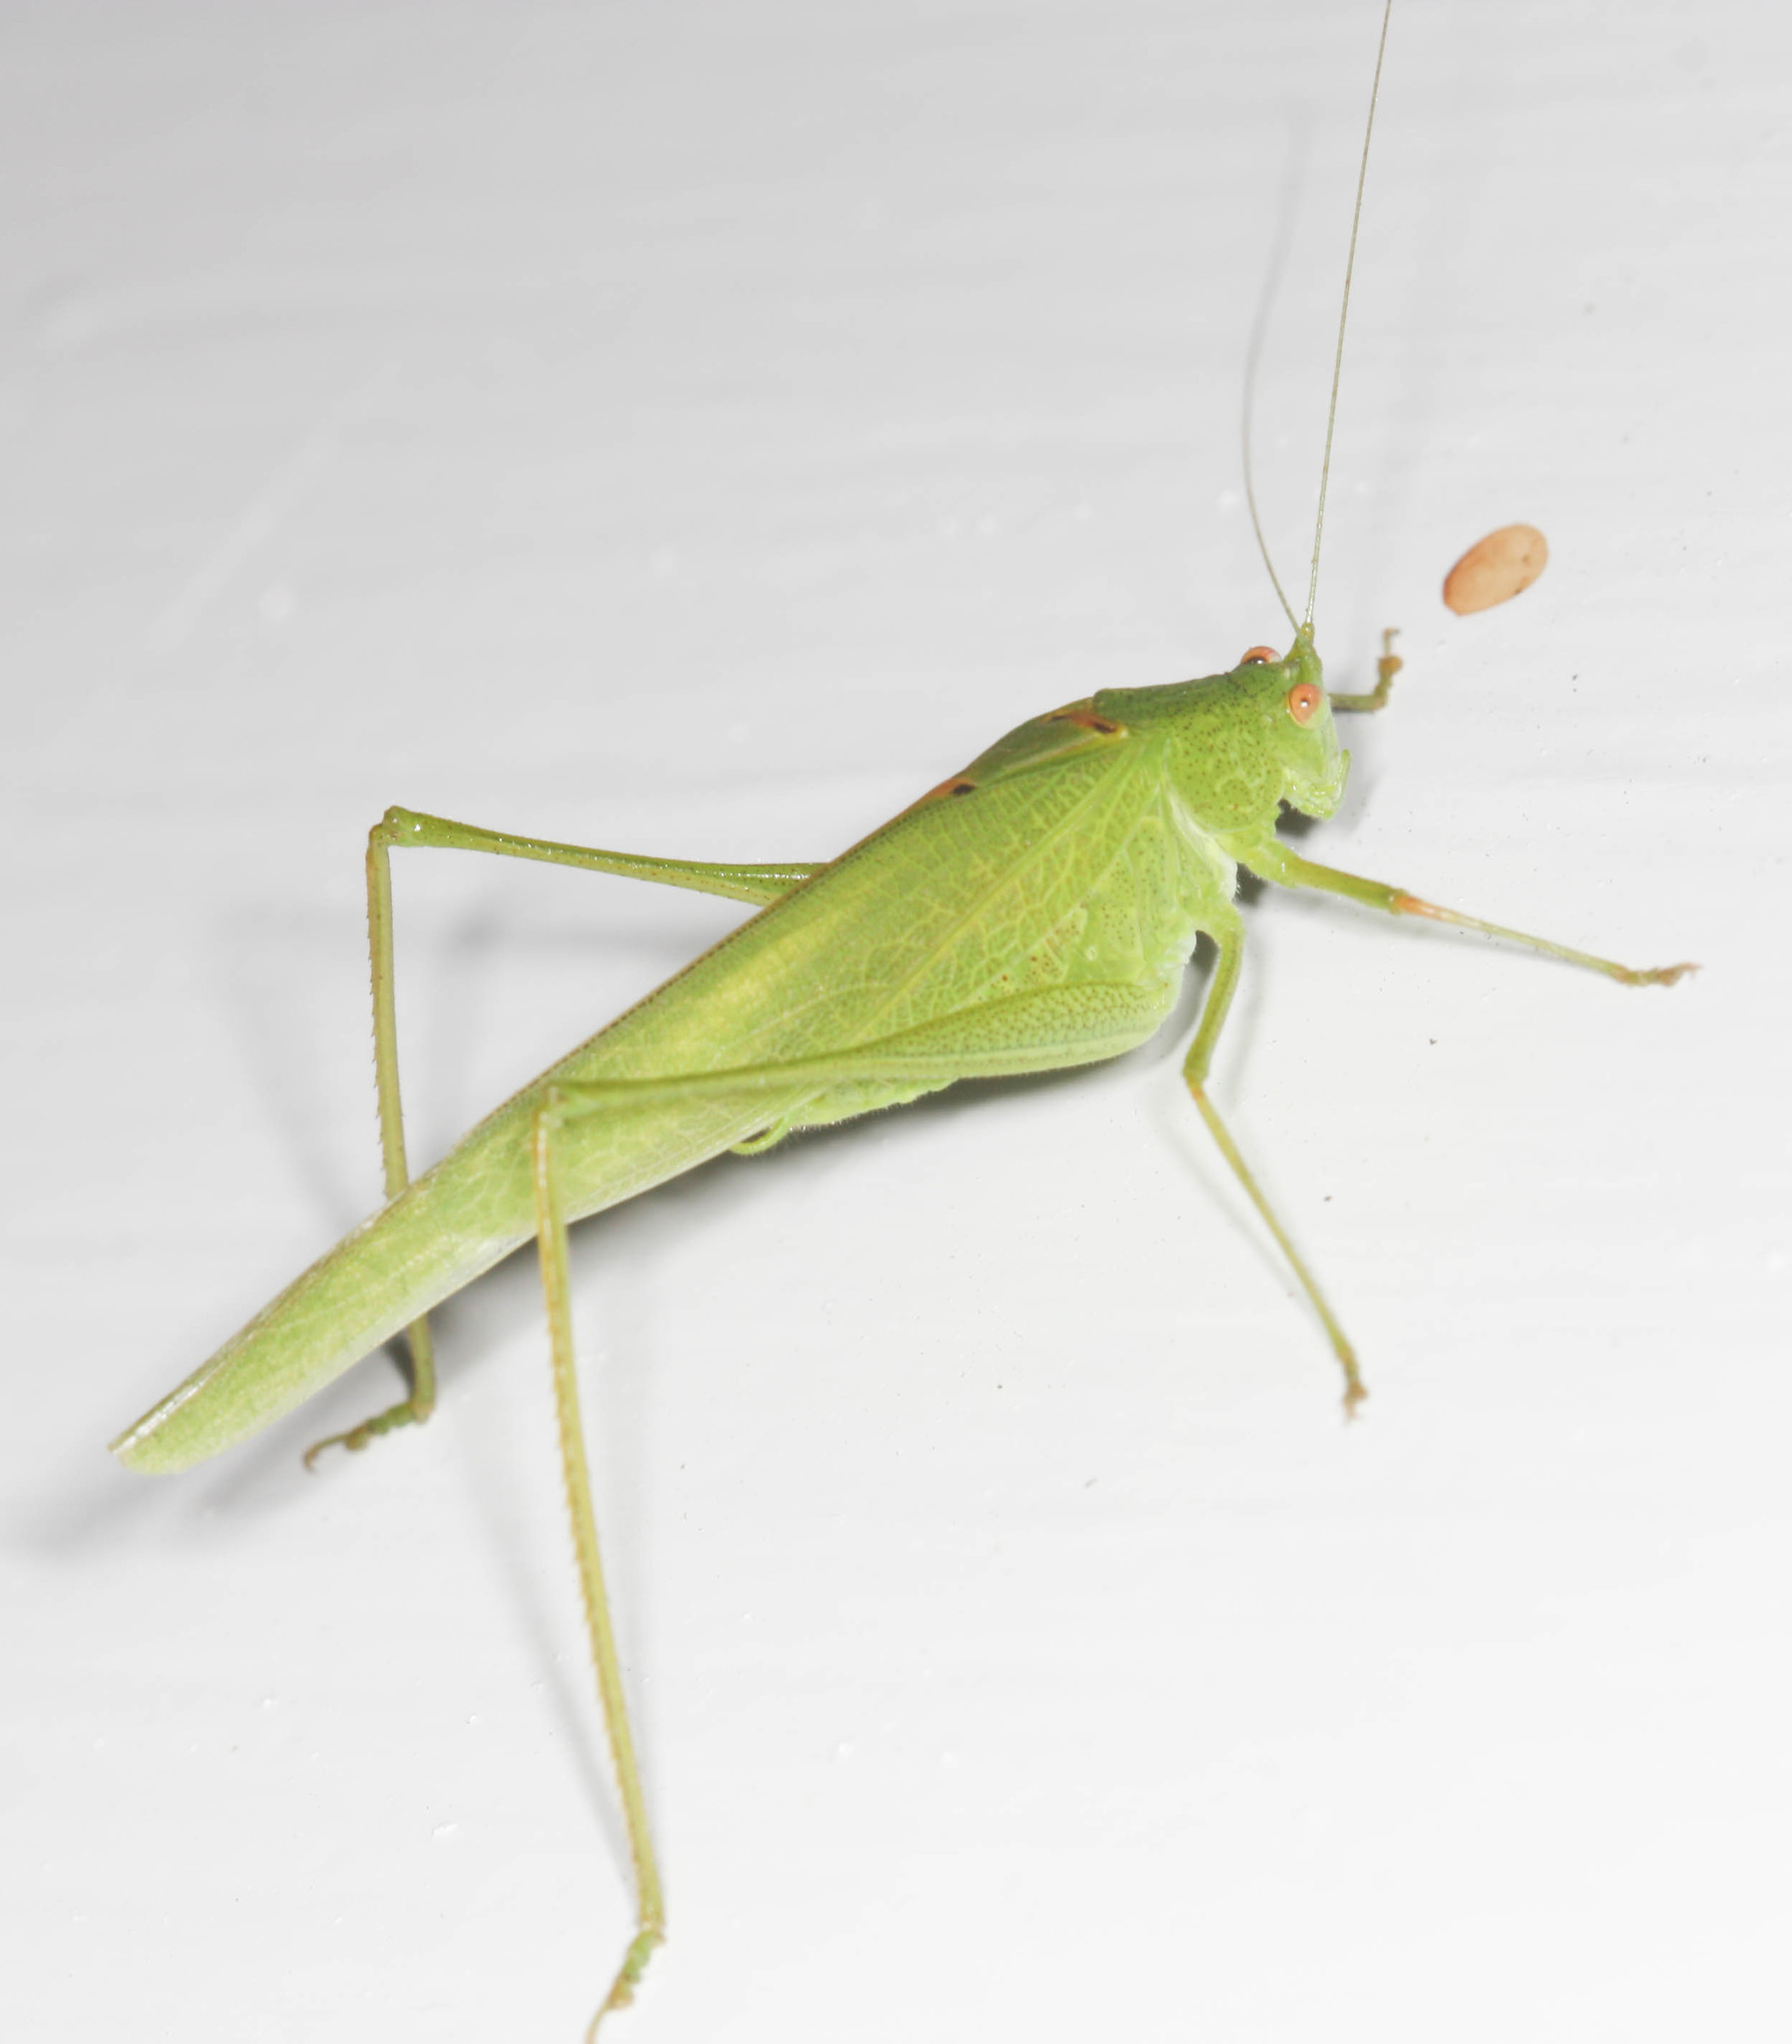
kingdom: Animalia
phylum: Arthropoda
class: Insecta
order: Orthoptera
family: Tettigoniidae
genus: Phaneroptera
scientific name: Phaneroptera nana
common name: Southern sickle bush-cricket
